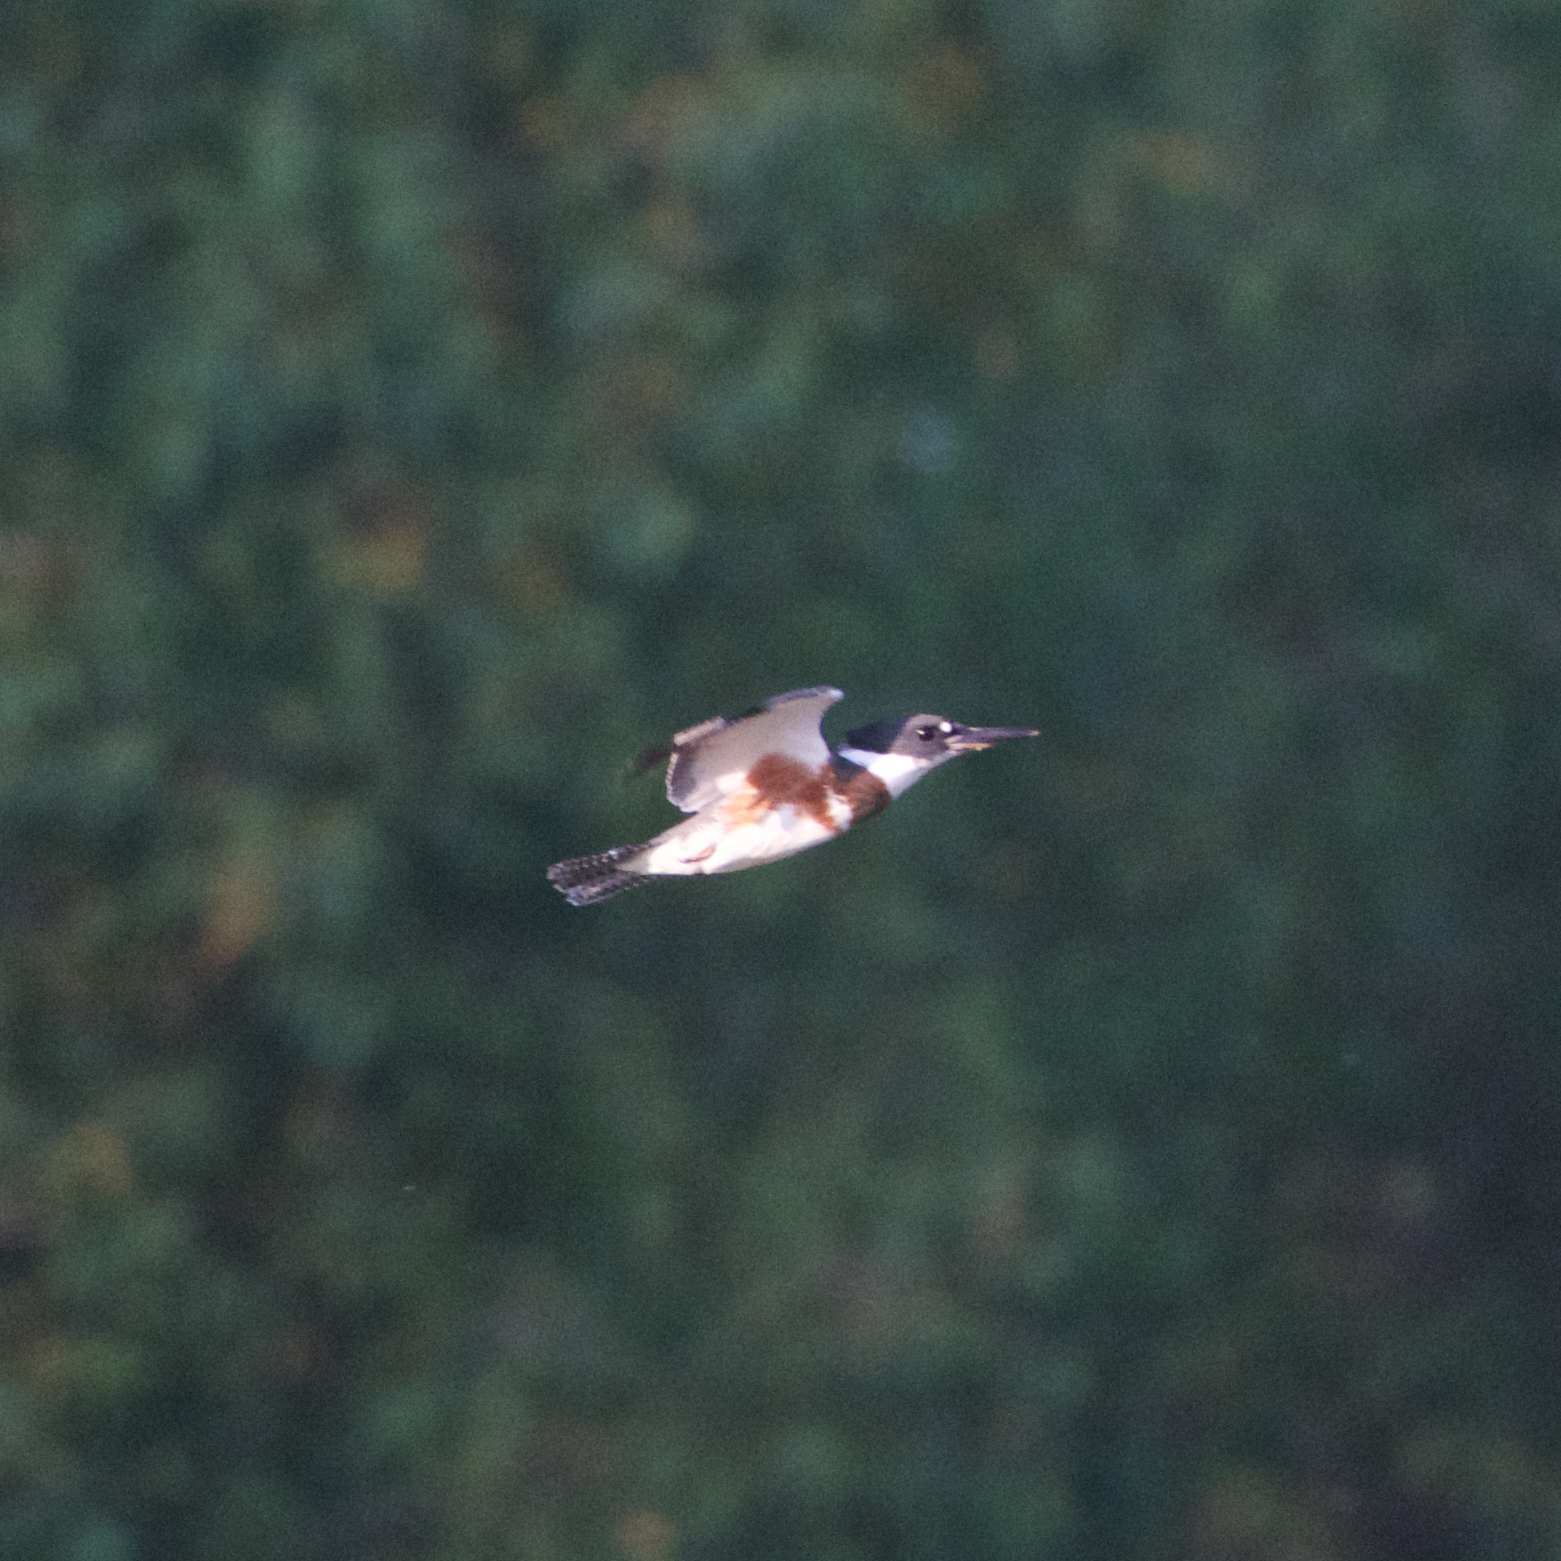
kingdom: Animalia
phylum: Chordata
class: Aves
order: Coraciiformes
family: Alcedinidae
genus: Megaceryle
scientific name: Megaceryle alcyon
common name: Belted kingfisher
